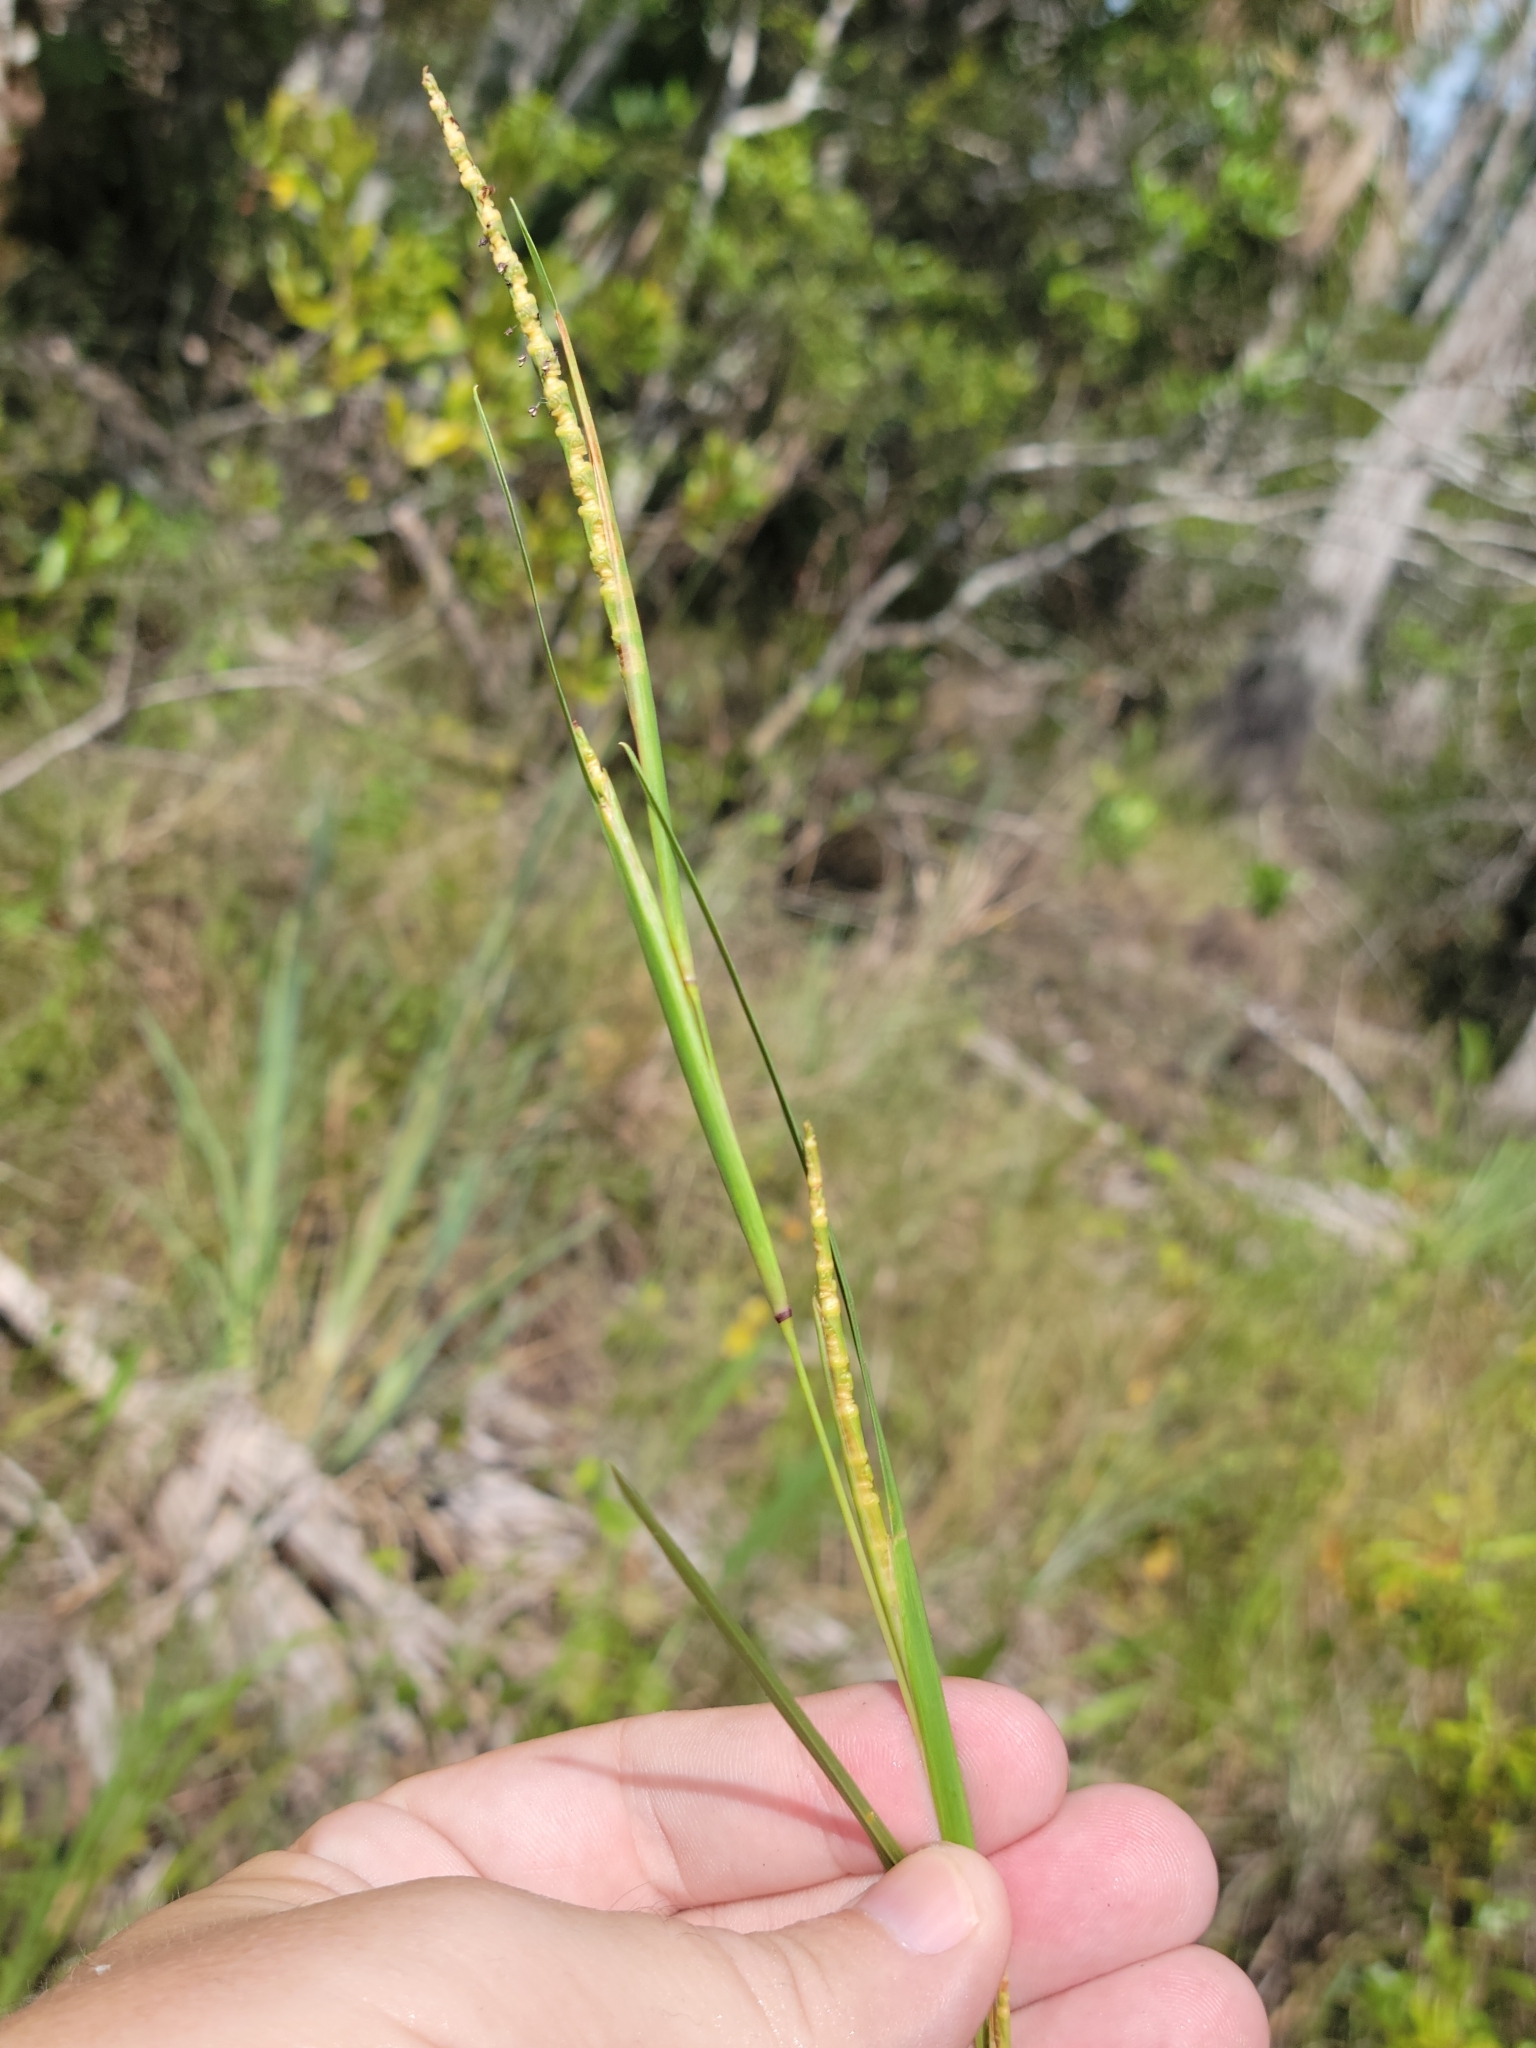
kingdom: Plantae
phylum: Tracheophyta
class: Liliopsida
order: Poales
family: Poaceae
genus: Rottboellia
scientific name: Rottboellia rugosa
